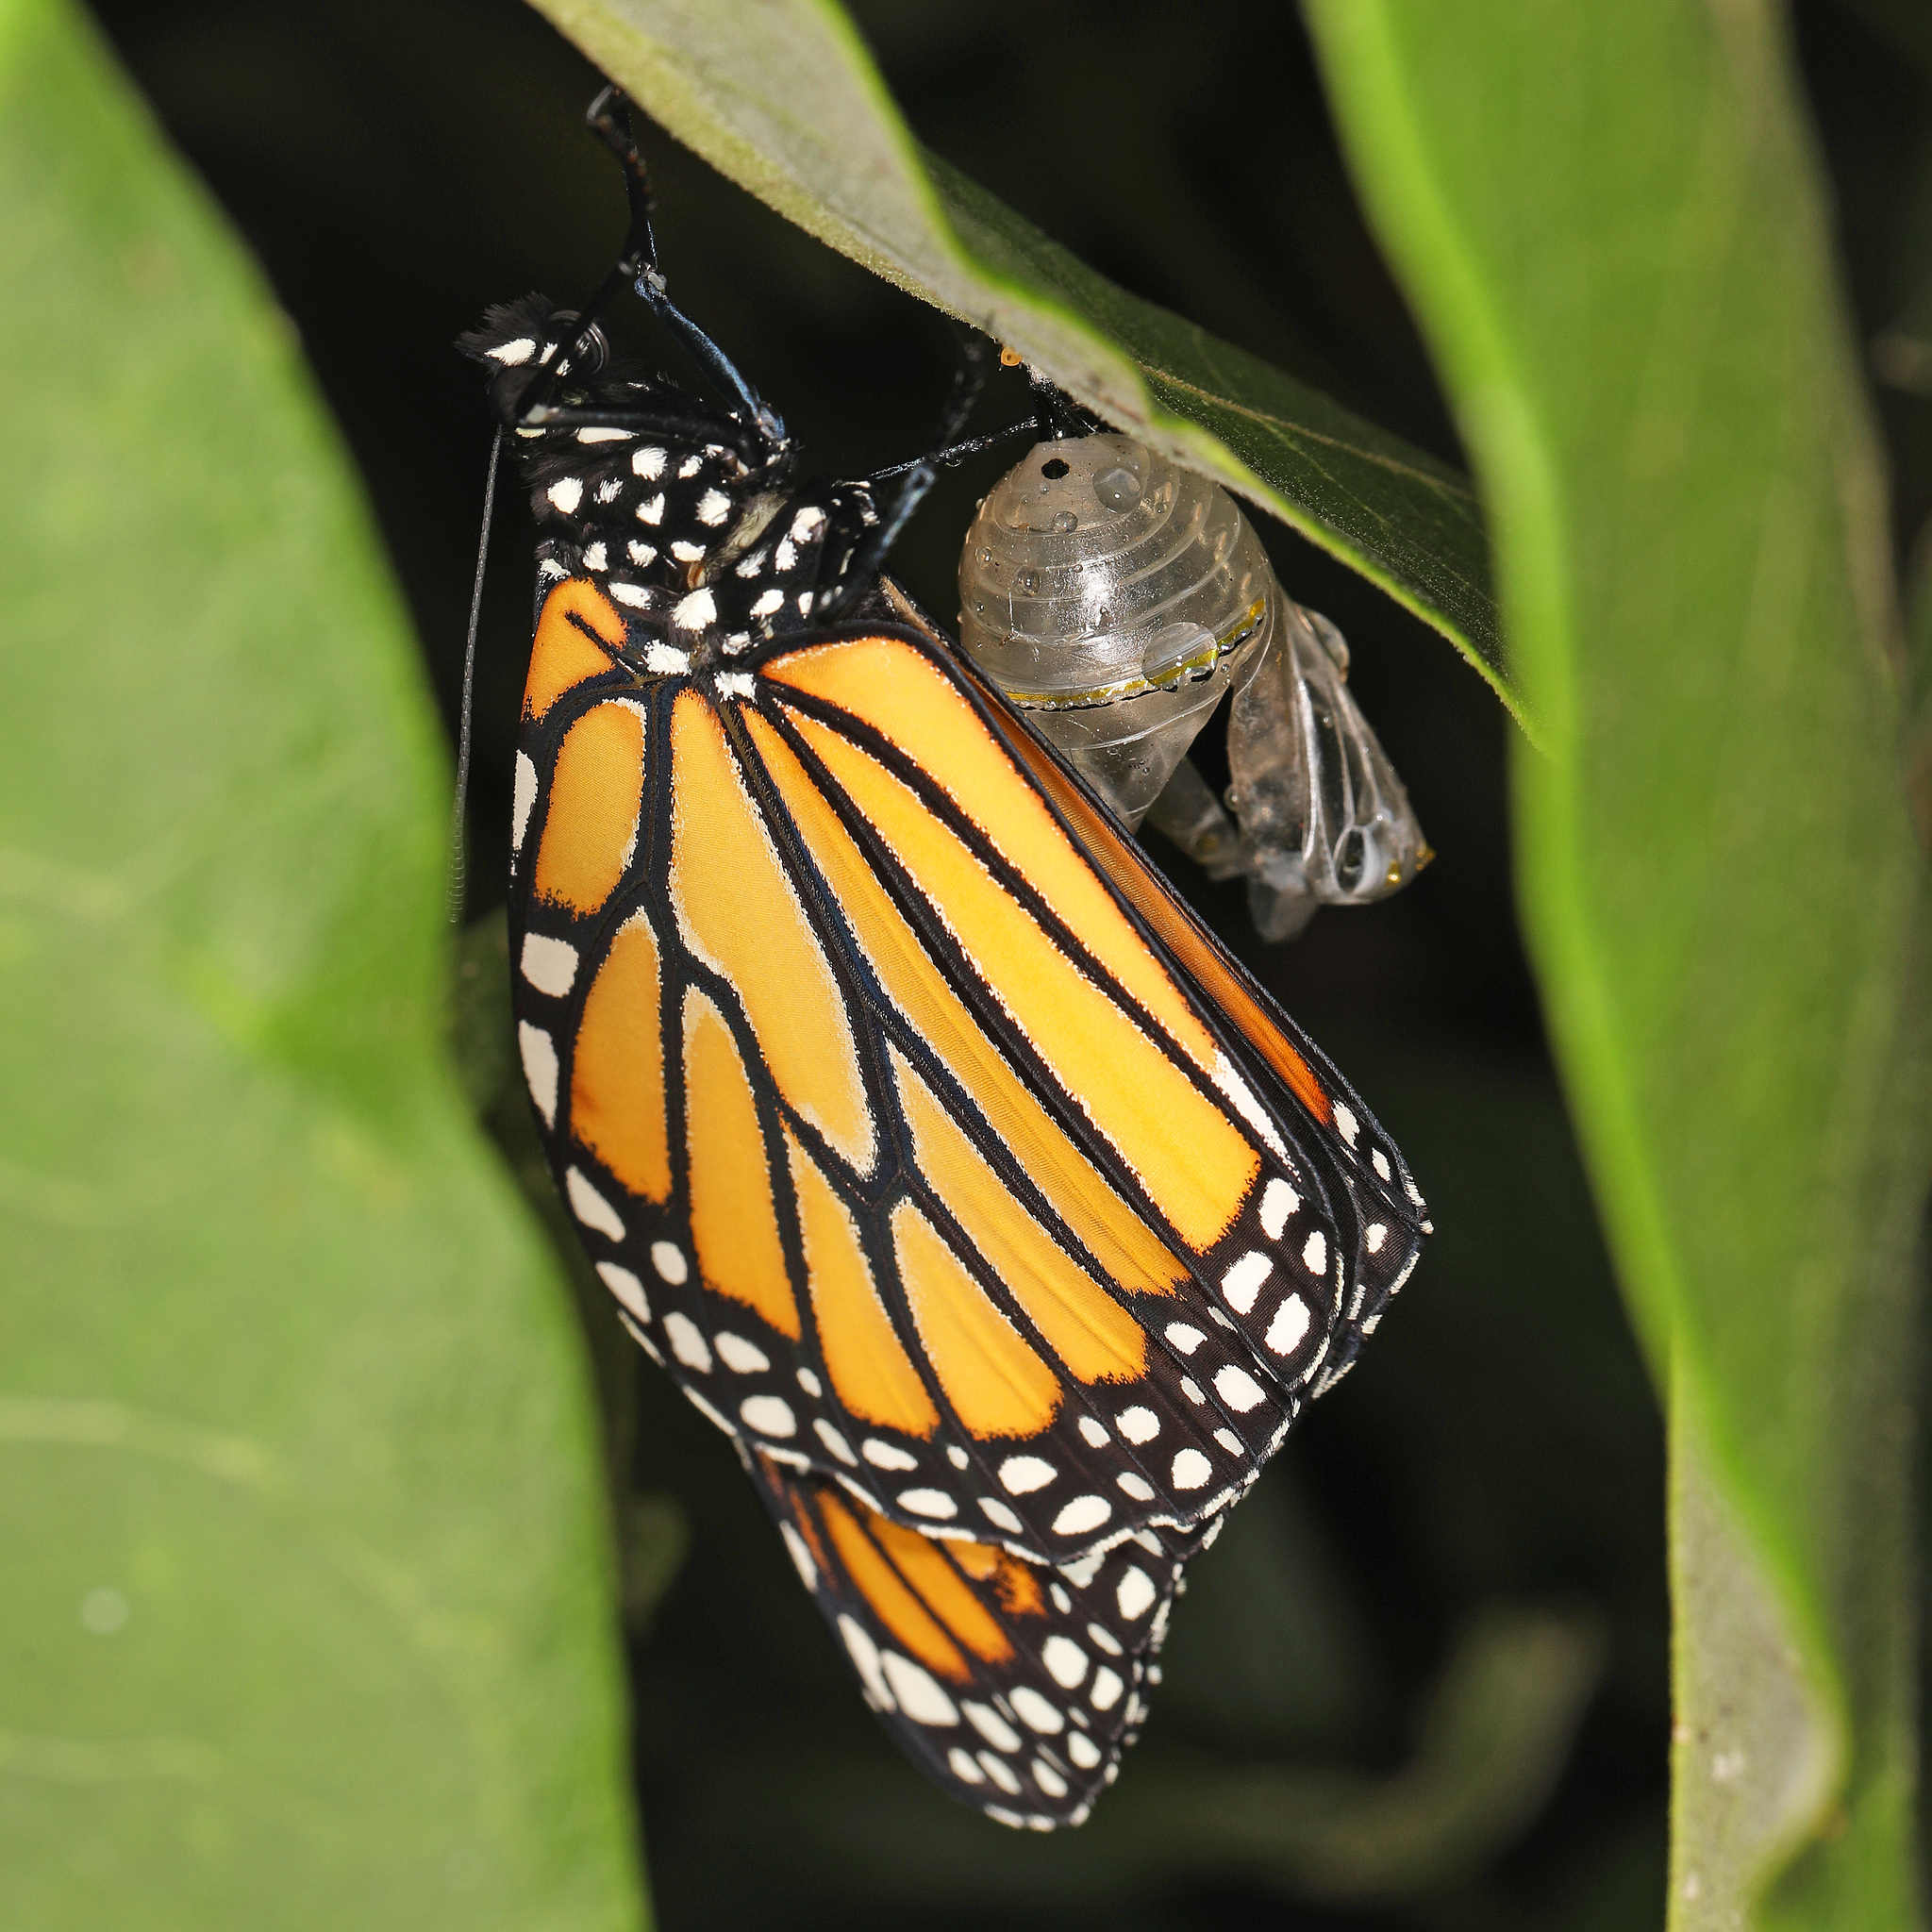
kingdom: Animalia
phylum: Arthropoda
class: Insecta
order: Lepidoptera
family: Nymphalidae
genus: Danaus
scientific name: Danaus plexippus
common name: Monarch
